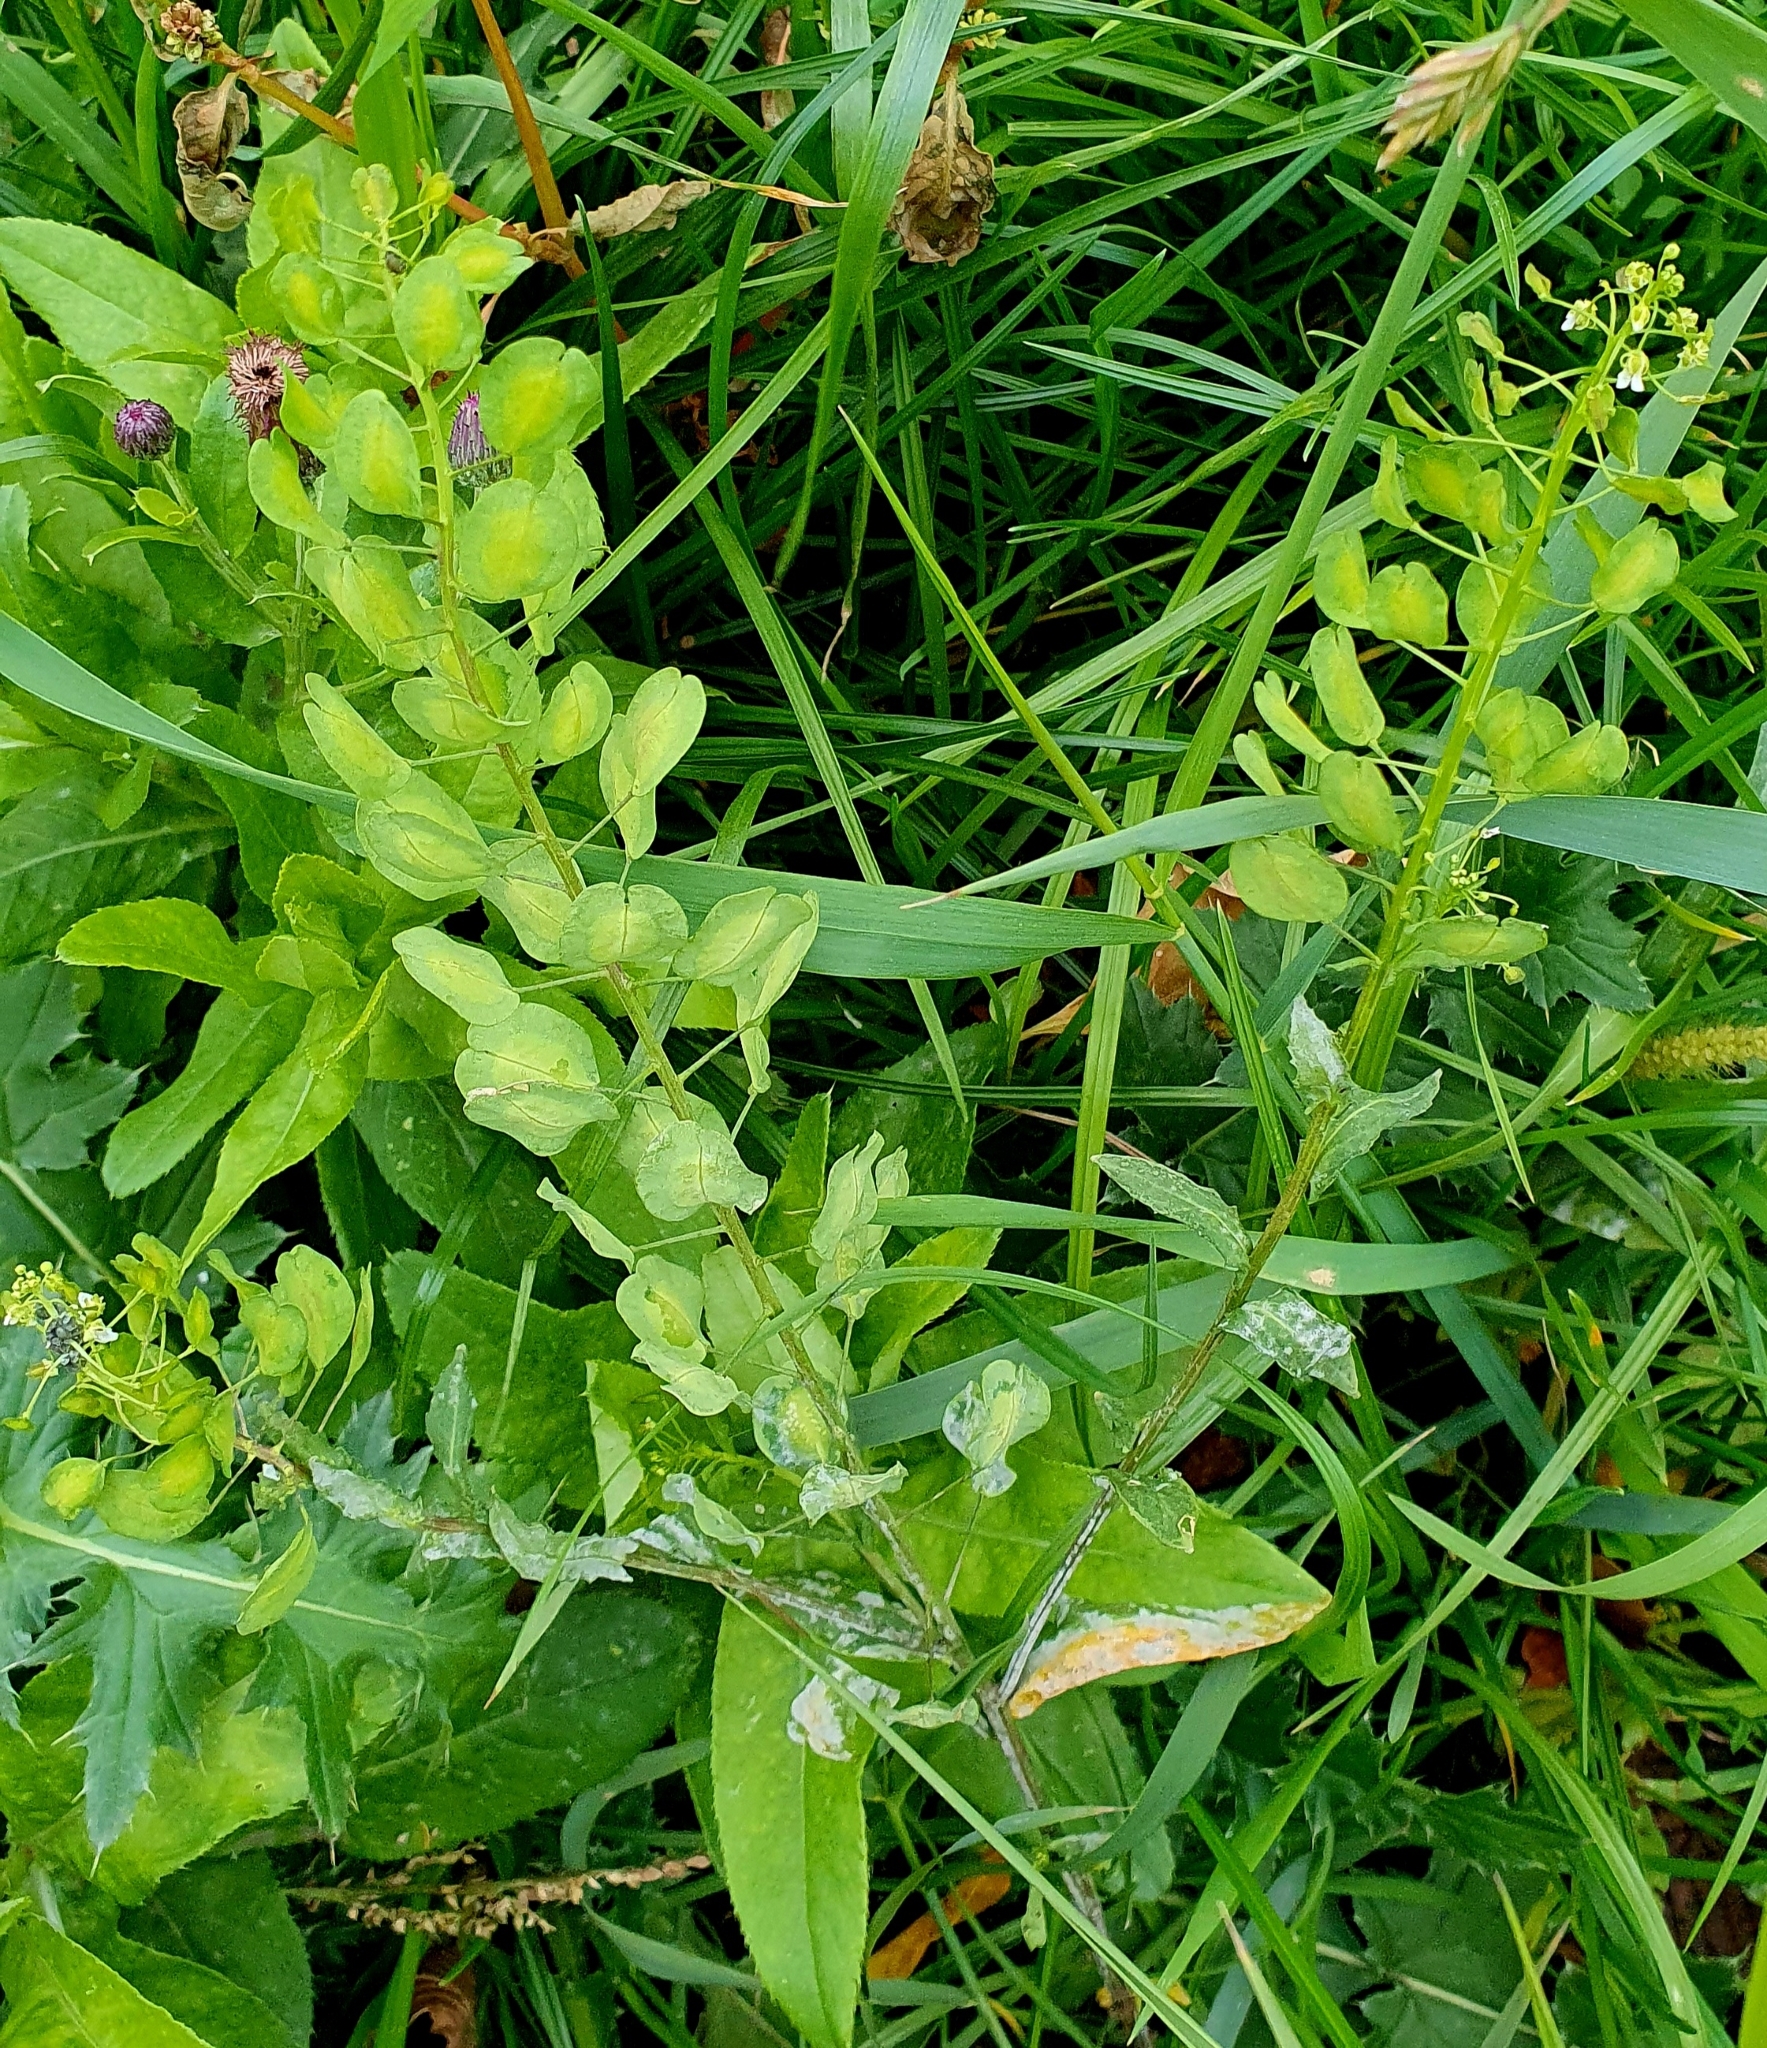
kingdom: Plantae
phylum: Tracheophyta
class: Magnoliopsida
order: Brassicales
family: Brassicaceae
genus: Thlaspi
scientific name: Thlaspi arvense
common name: Field pennycress
